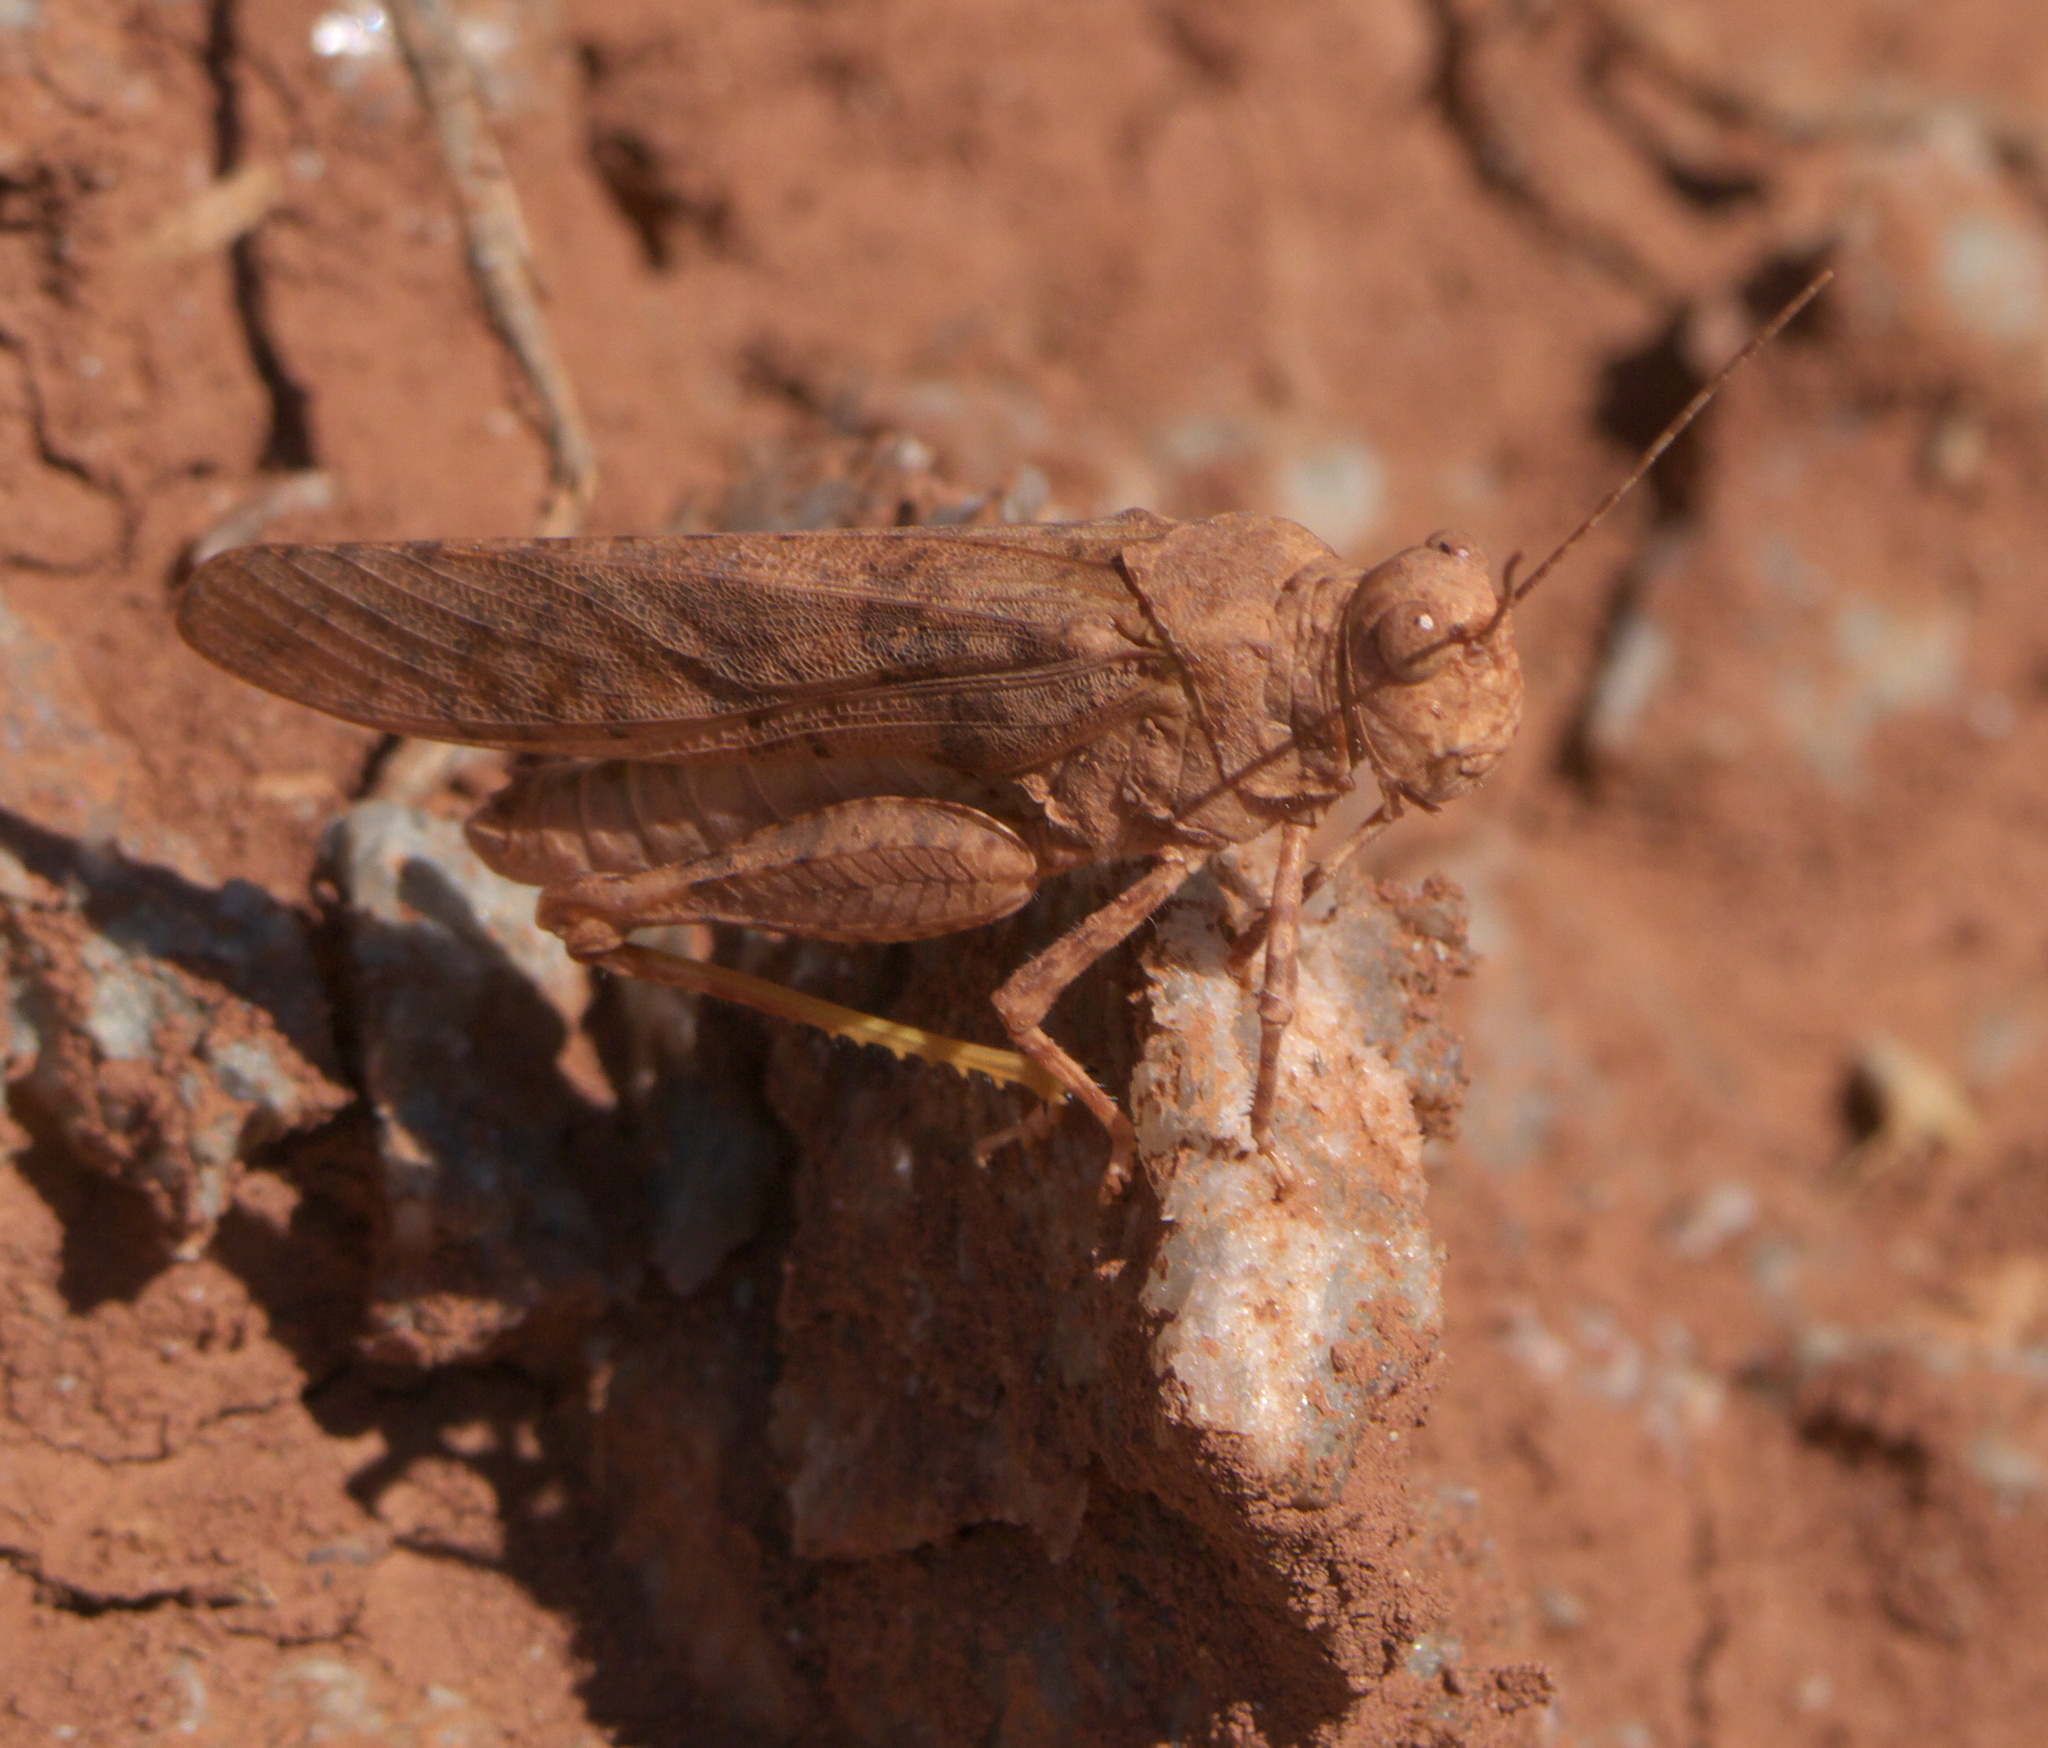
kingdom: Animalia
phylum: Arthropoda
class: Insecta
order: Orthoptera
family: Acrididae
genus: Circotettix
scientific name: Circotettix rabula
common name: Wrangler grasshopper
